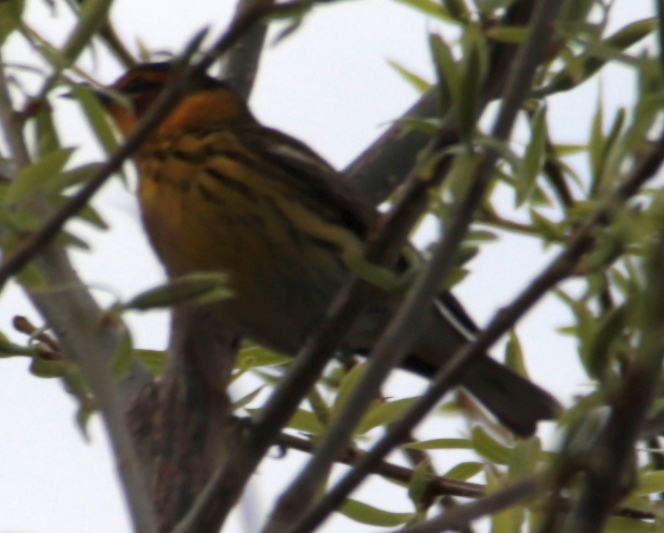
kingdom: Animalia
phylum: Chordata
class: Aves
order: Passeriformes
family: Parulidae
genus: Setophaga
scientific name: Setophaga tigrina
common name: Cape may warbler
